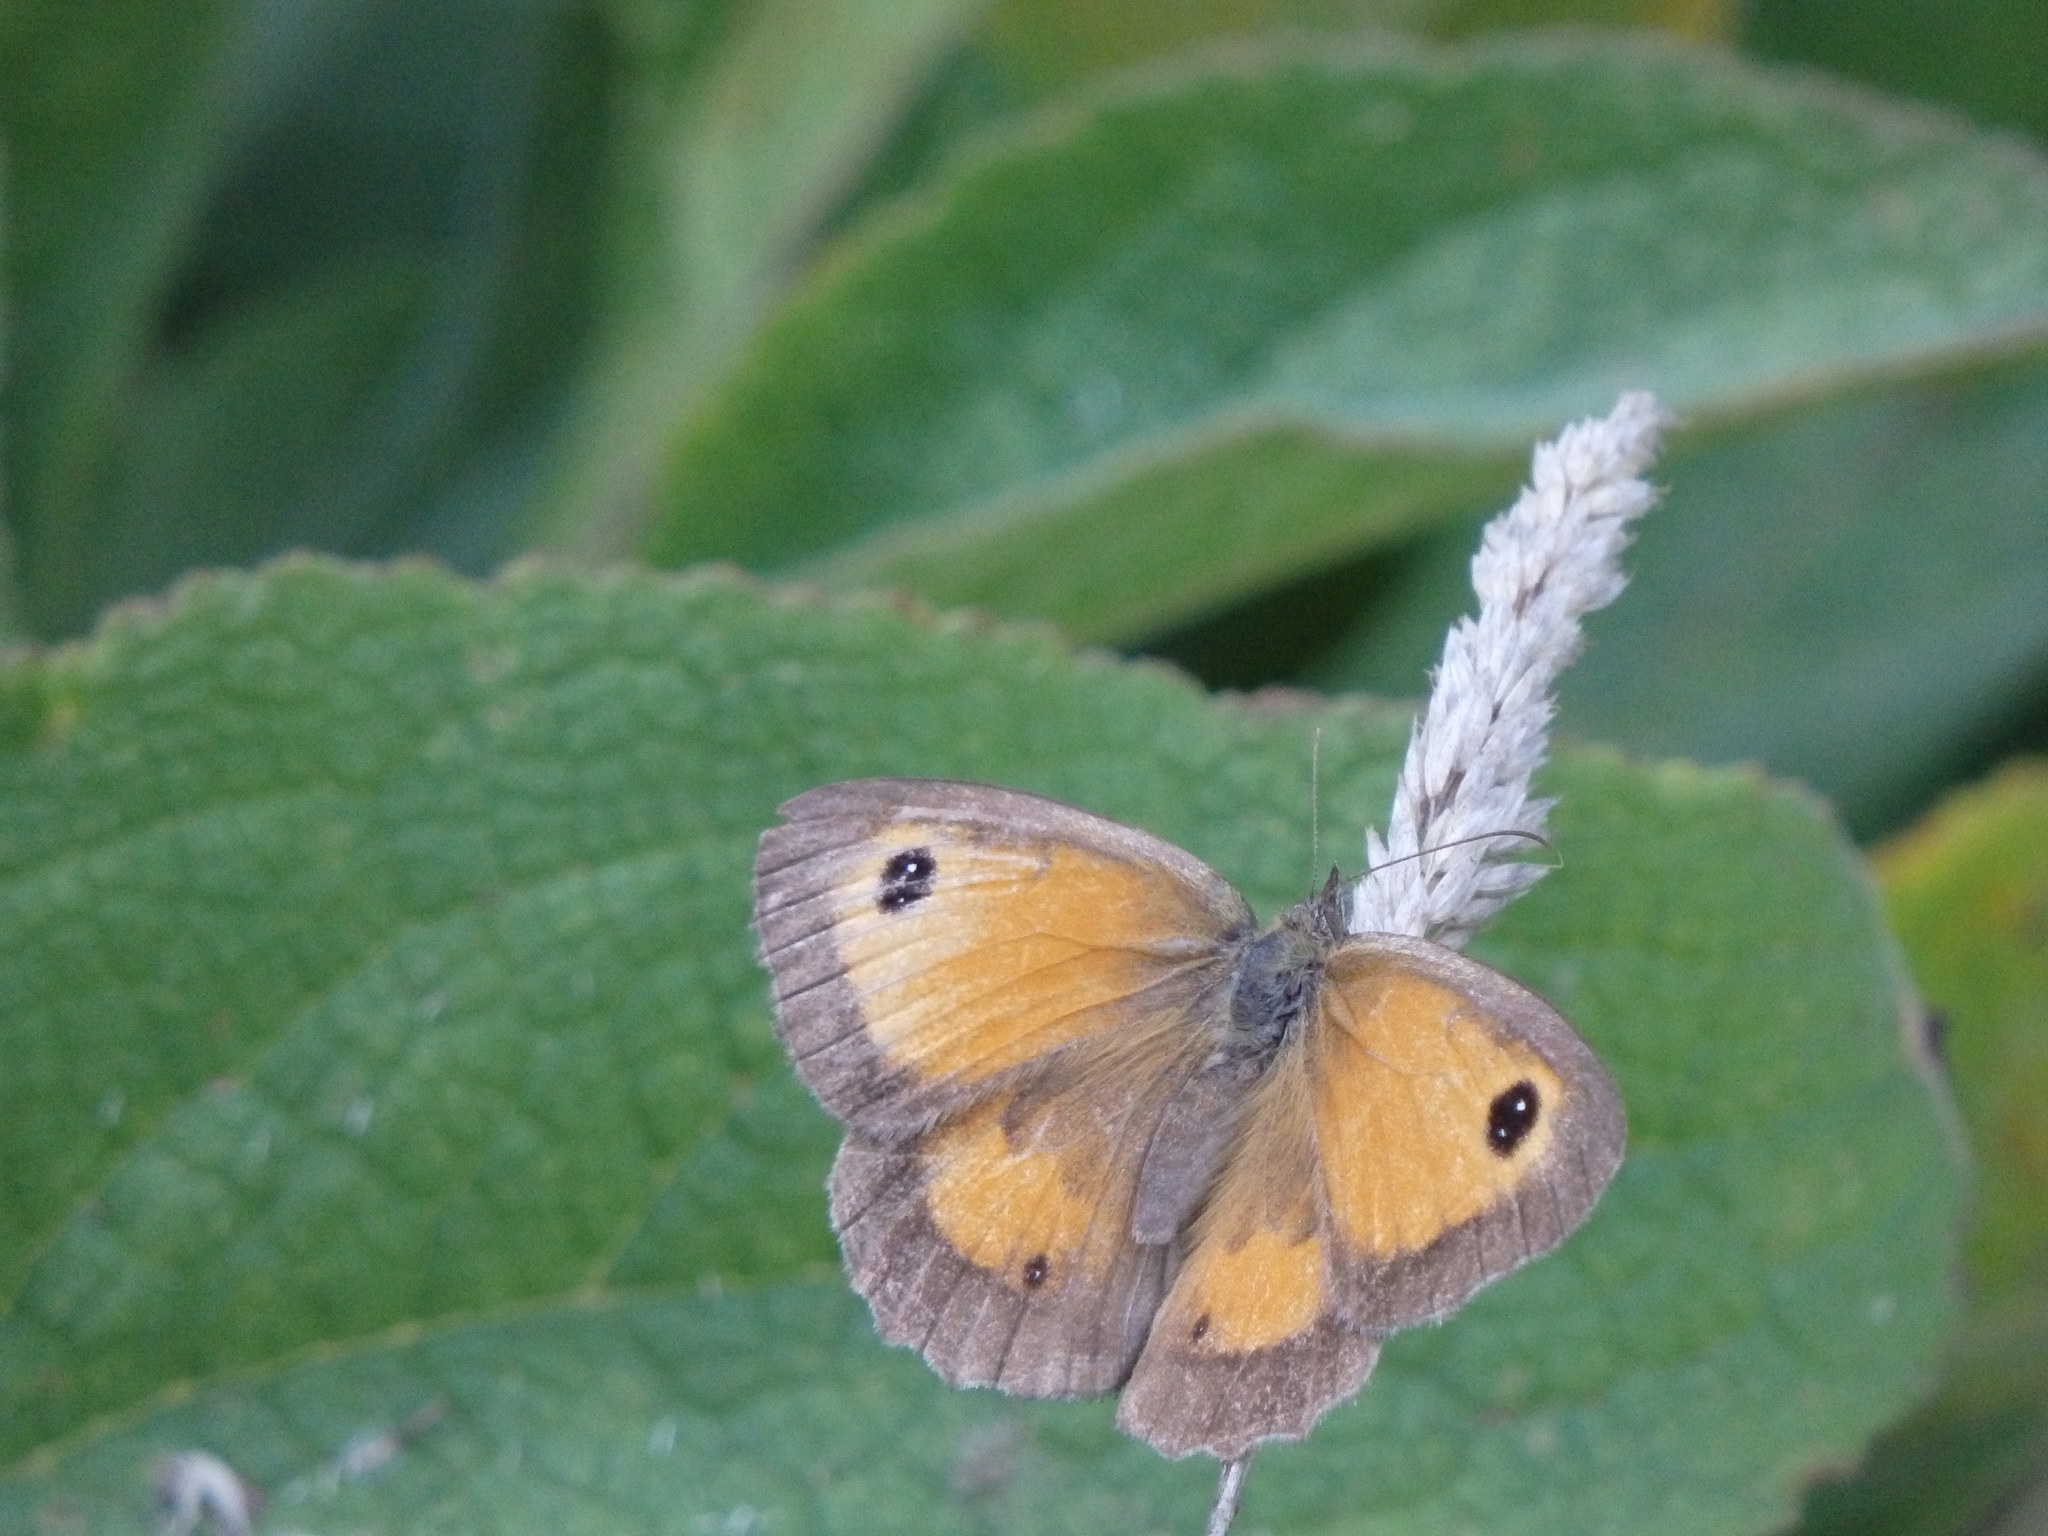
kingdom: Animalia
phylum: Arthropoda
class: Insecta
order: Lepidoptera
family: Nymphalidae
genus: Pyronia
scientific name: Pyronia tithonus
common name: Gatekeeper
